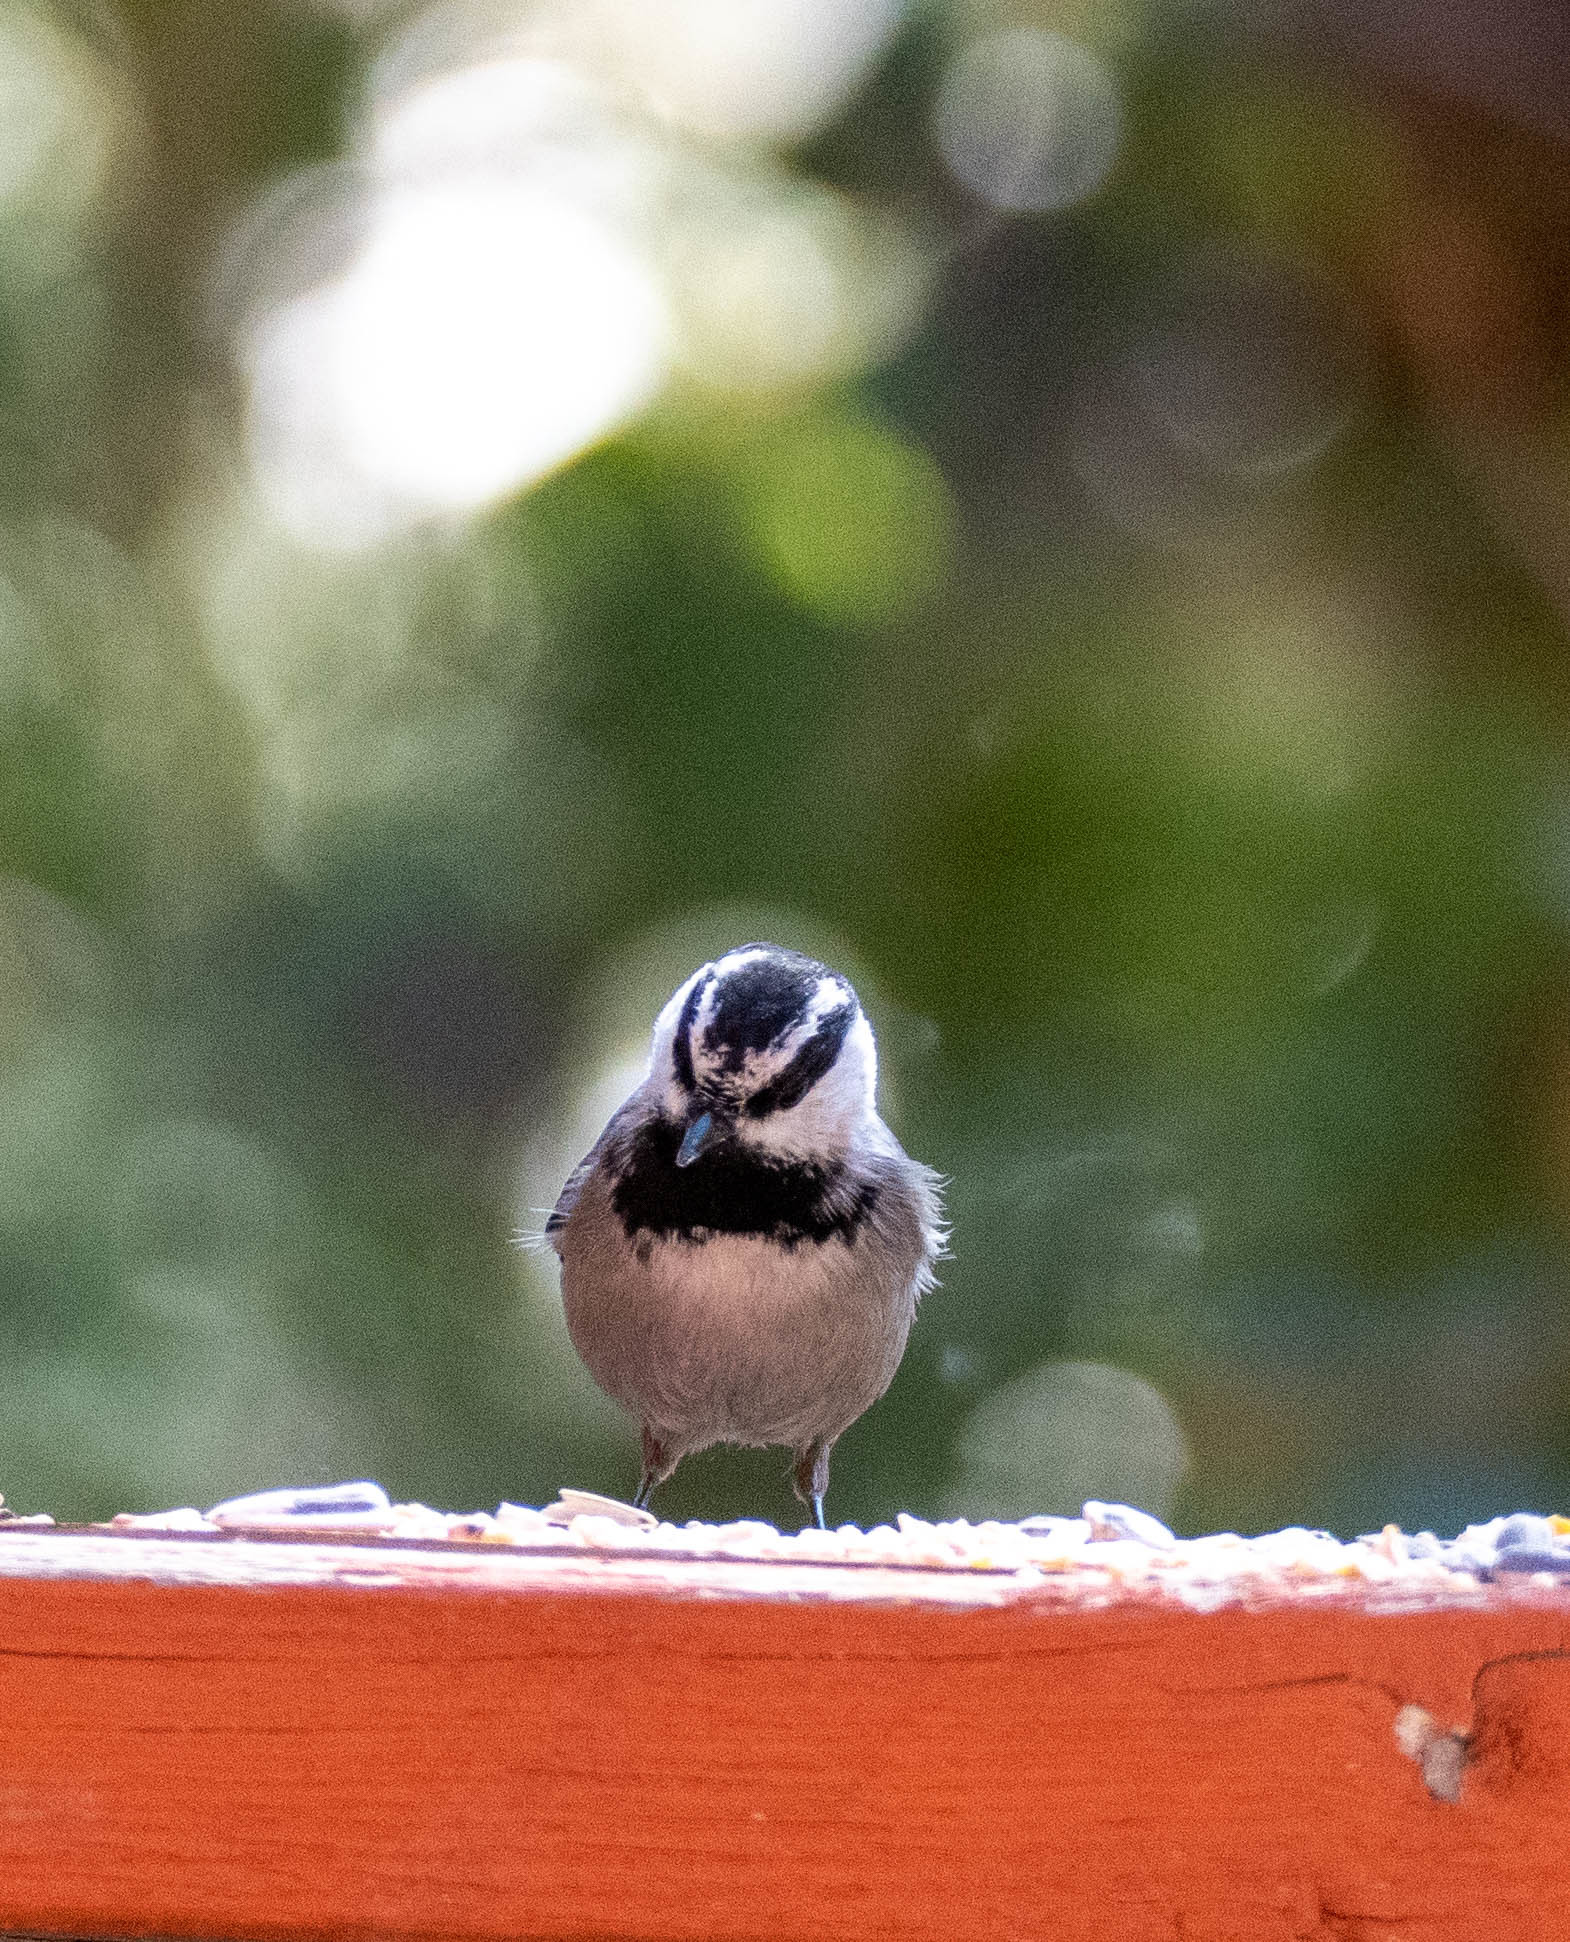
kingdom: Animalia
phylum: Chordata
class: Aves
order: Passeriformes
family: Paridae
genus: Poecile
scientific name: Poecile gambeli
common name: Mountain chickadee
